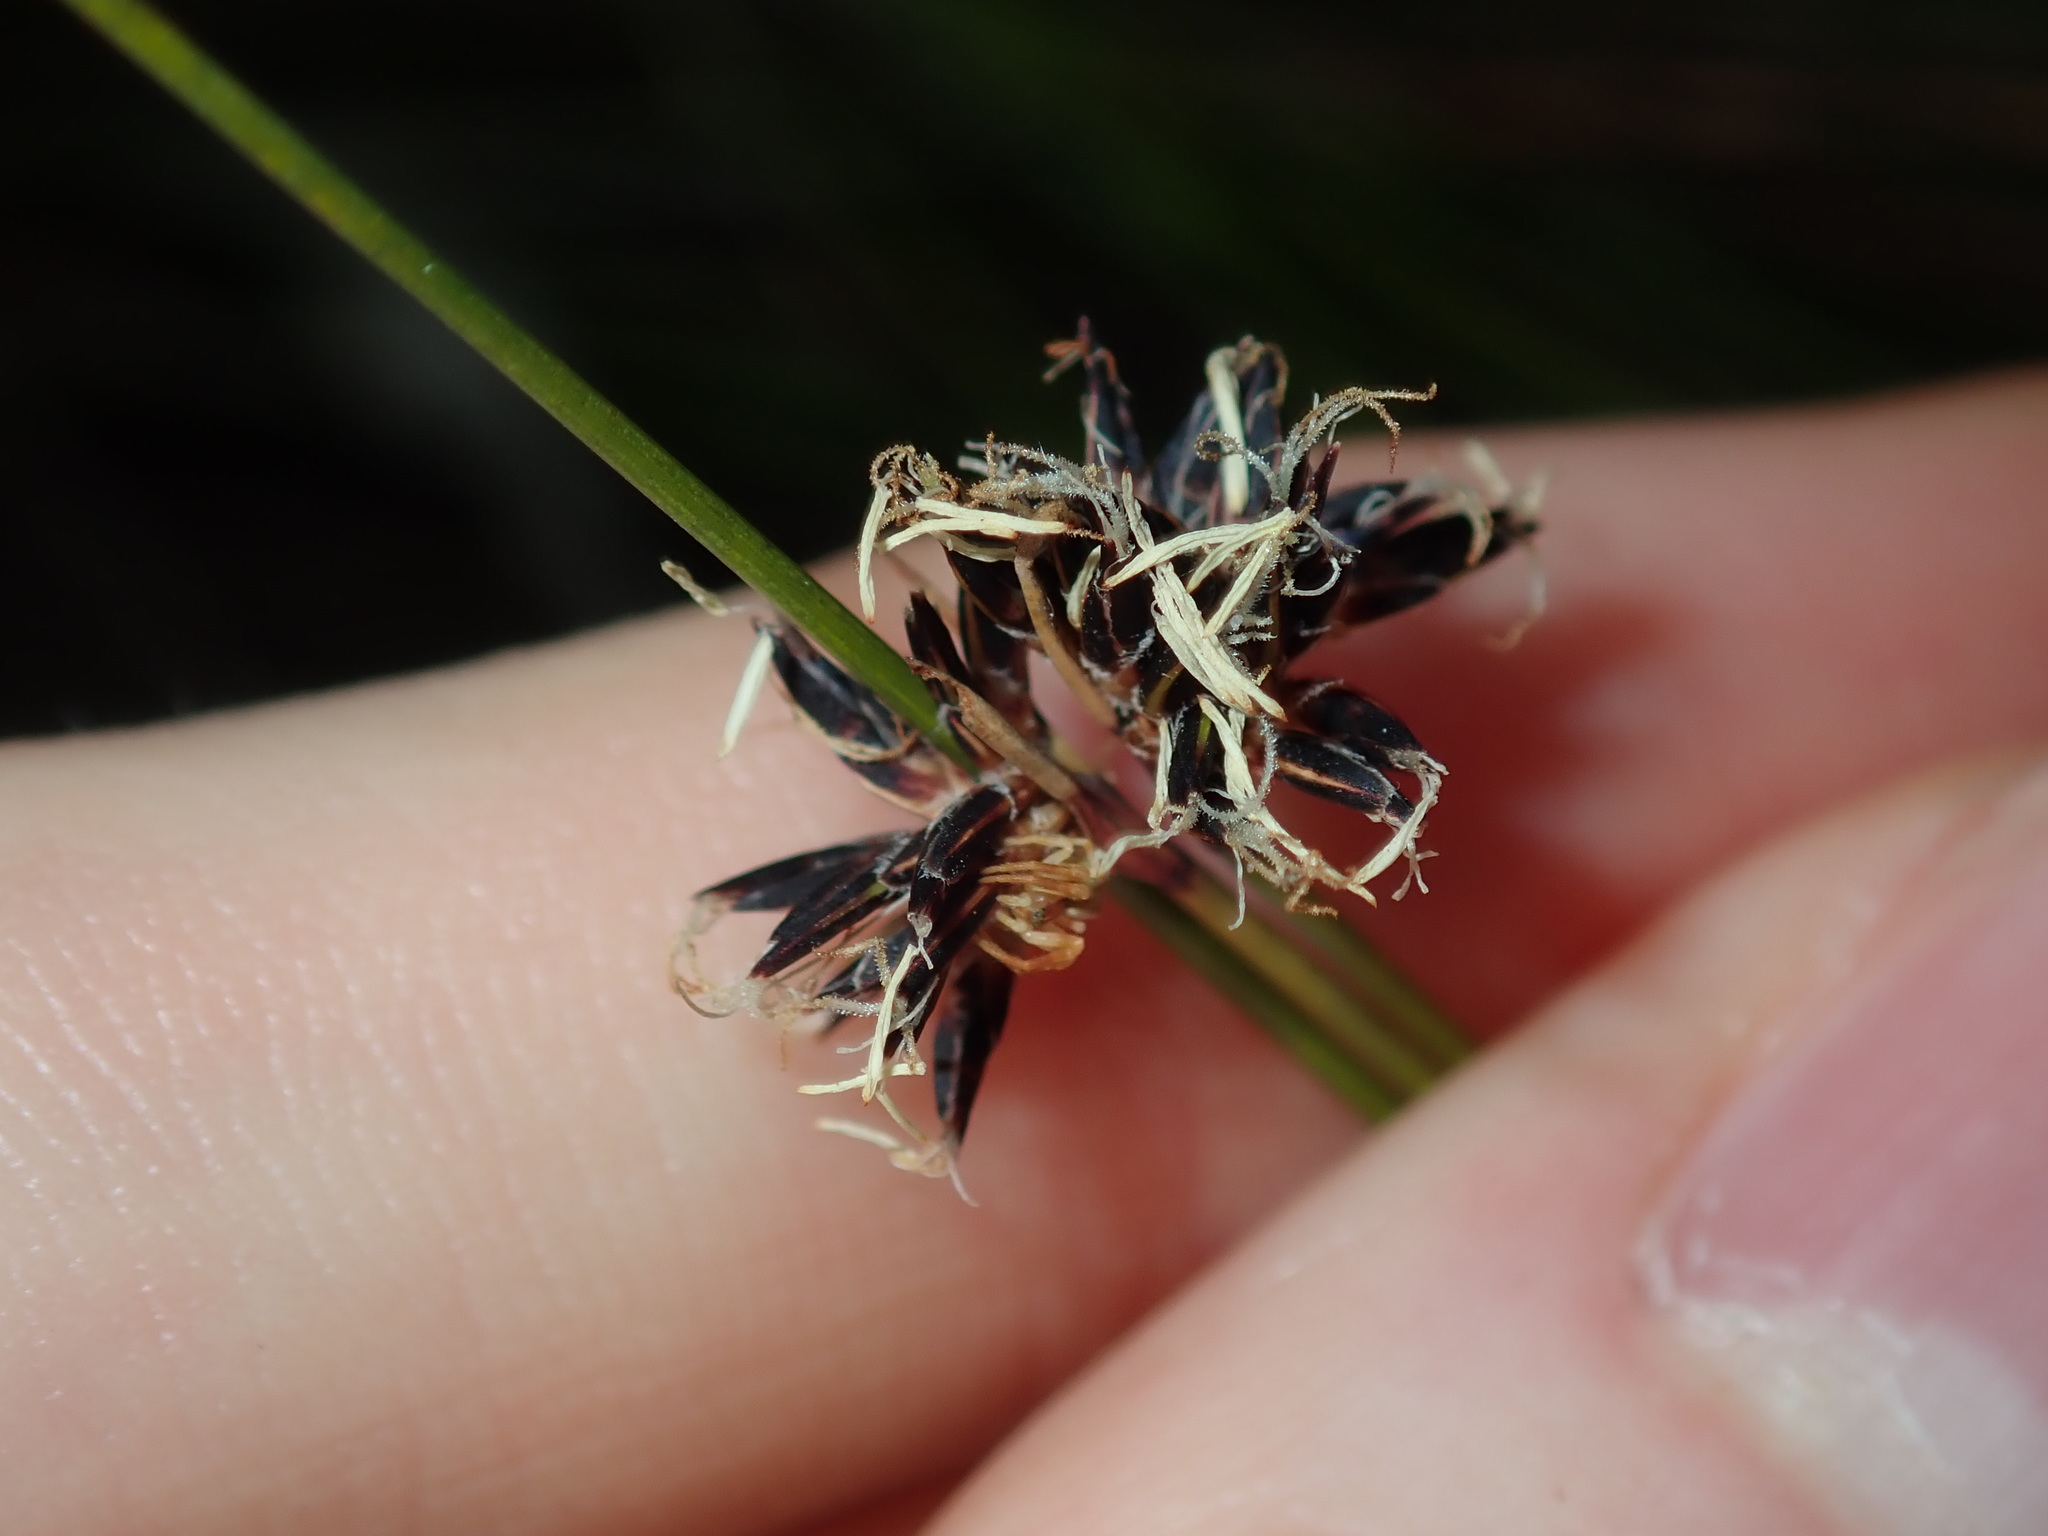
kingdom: Plantae
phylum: Tracheophyta
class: Liliopsida
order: Poales
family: Cyperaceae
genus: Schoenus
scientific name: Schoenus melanostachys
